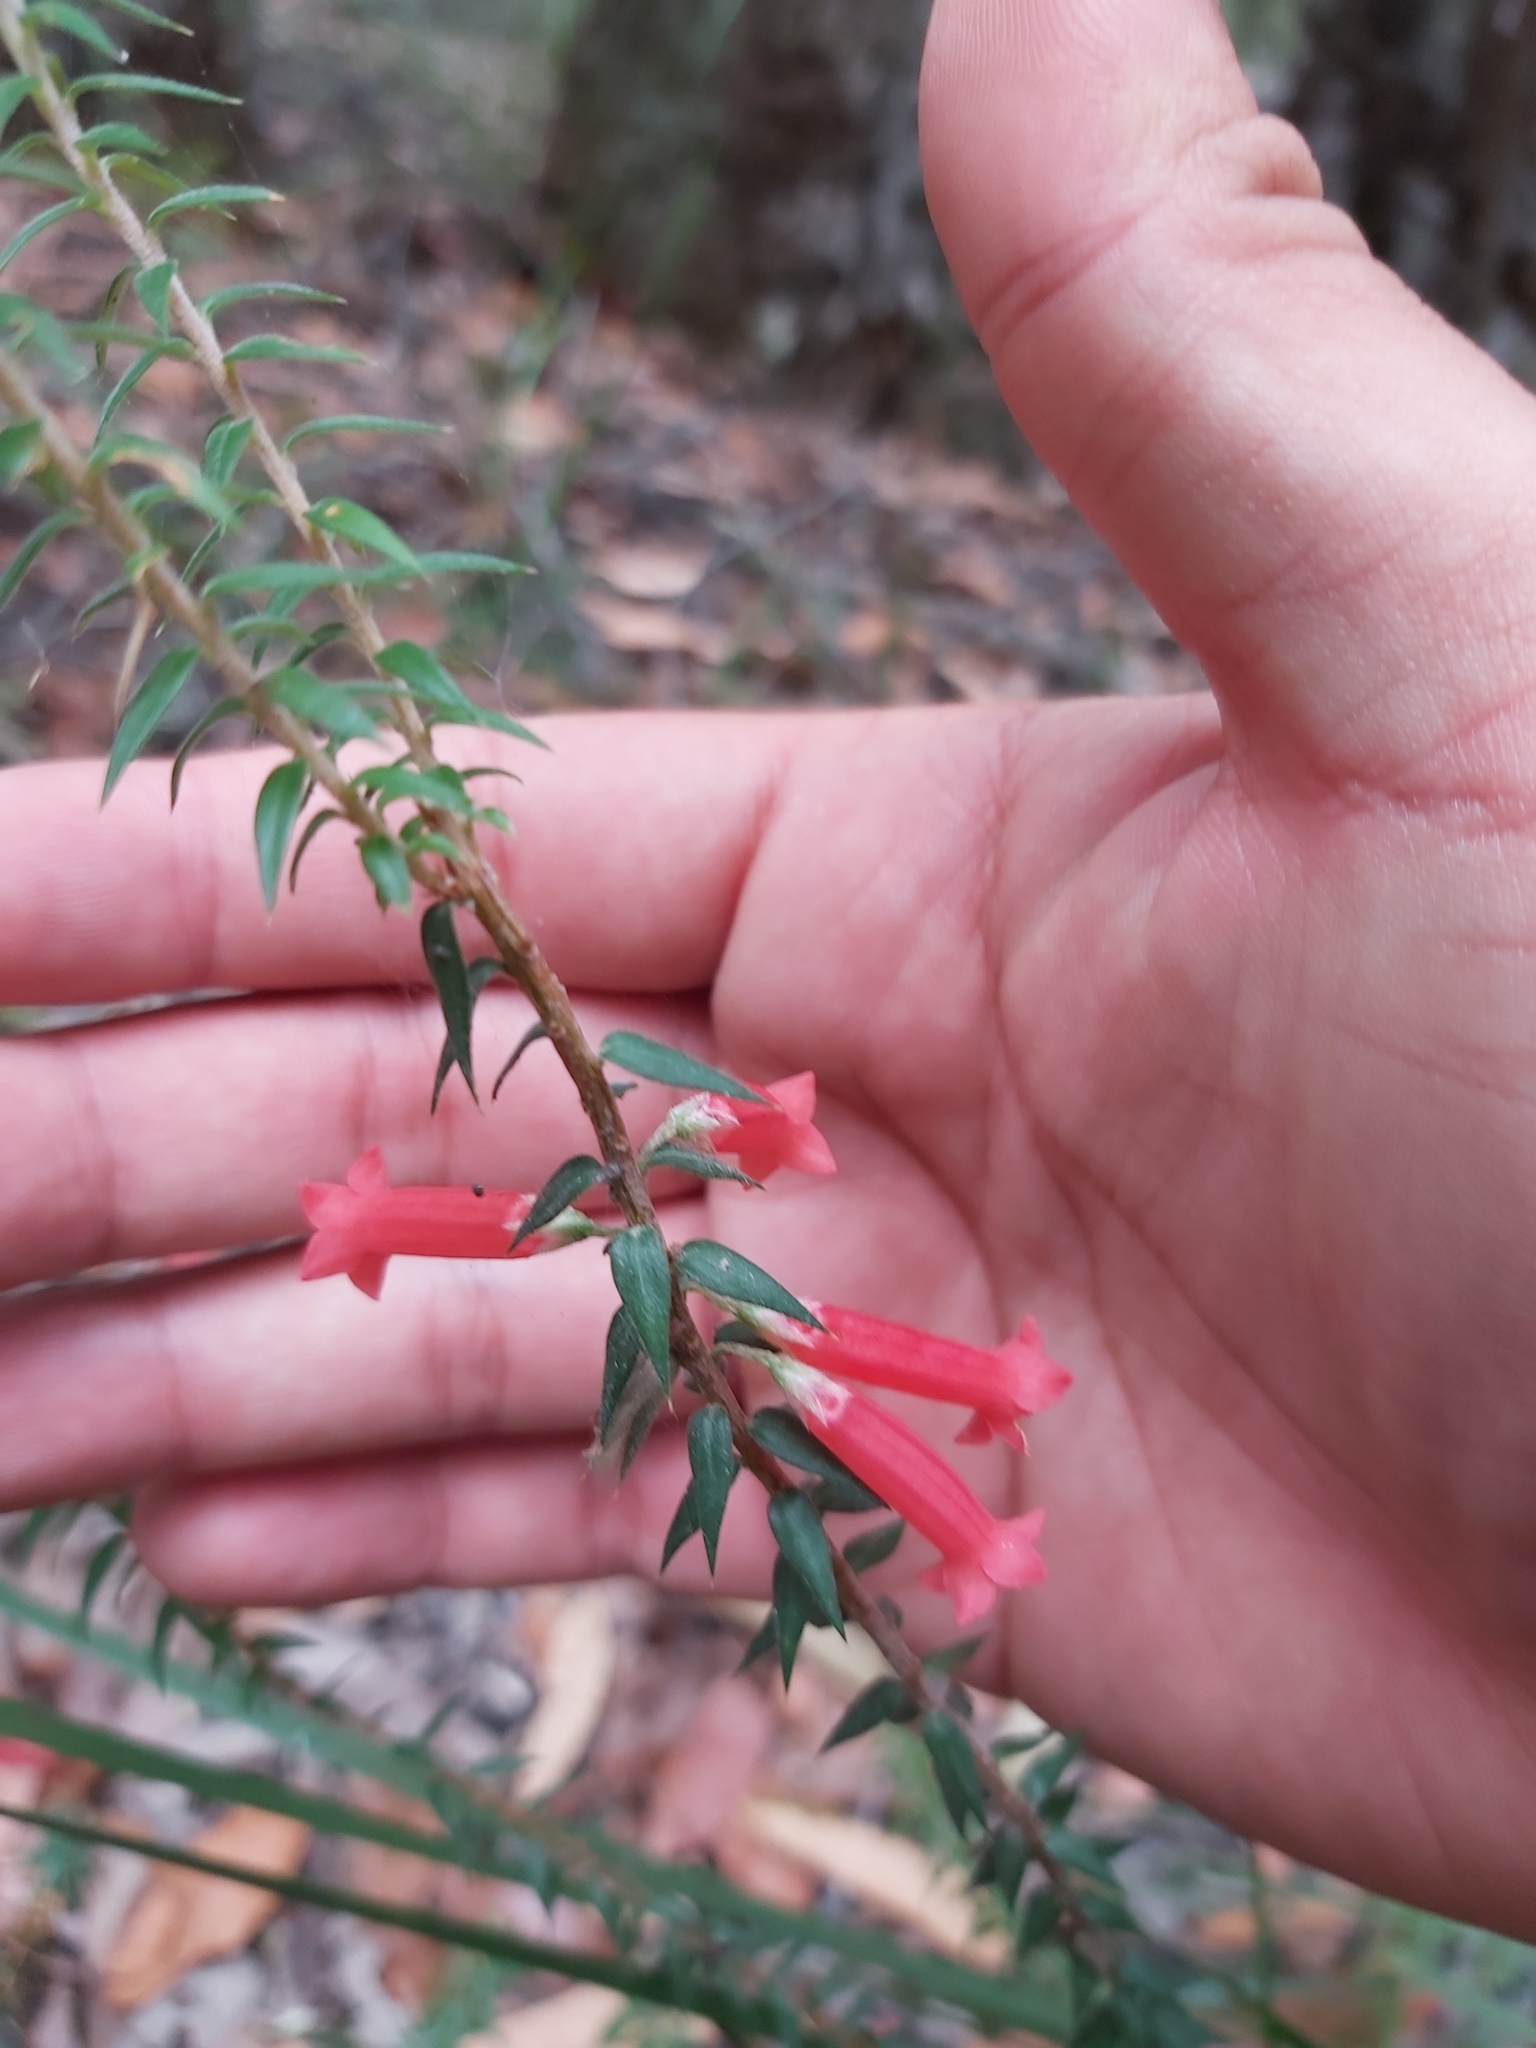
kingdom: Plantae
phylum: Tracheophyta
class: Magnoliopsida
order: Ericales
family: Ericaceae
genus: Epacris
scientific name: Epacris impressa
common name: Common-heath
